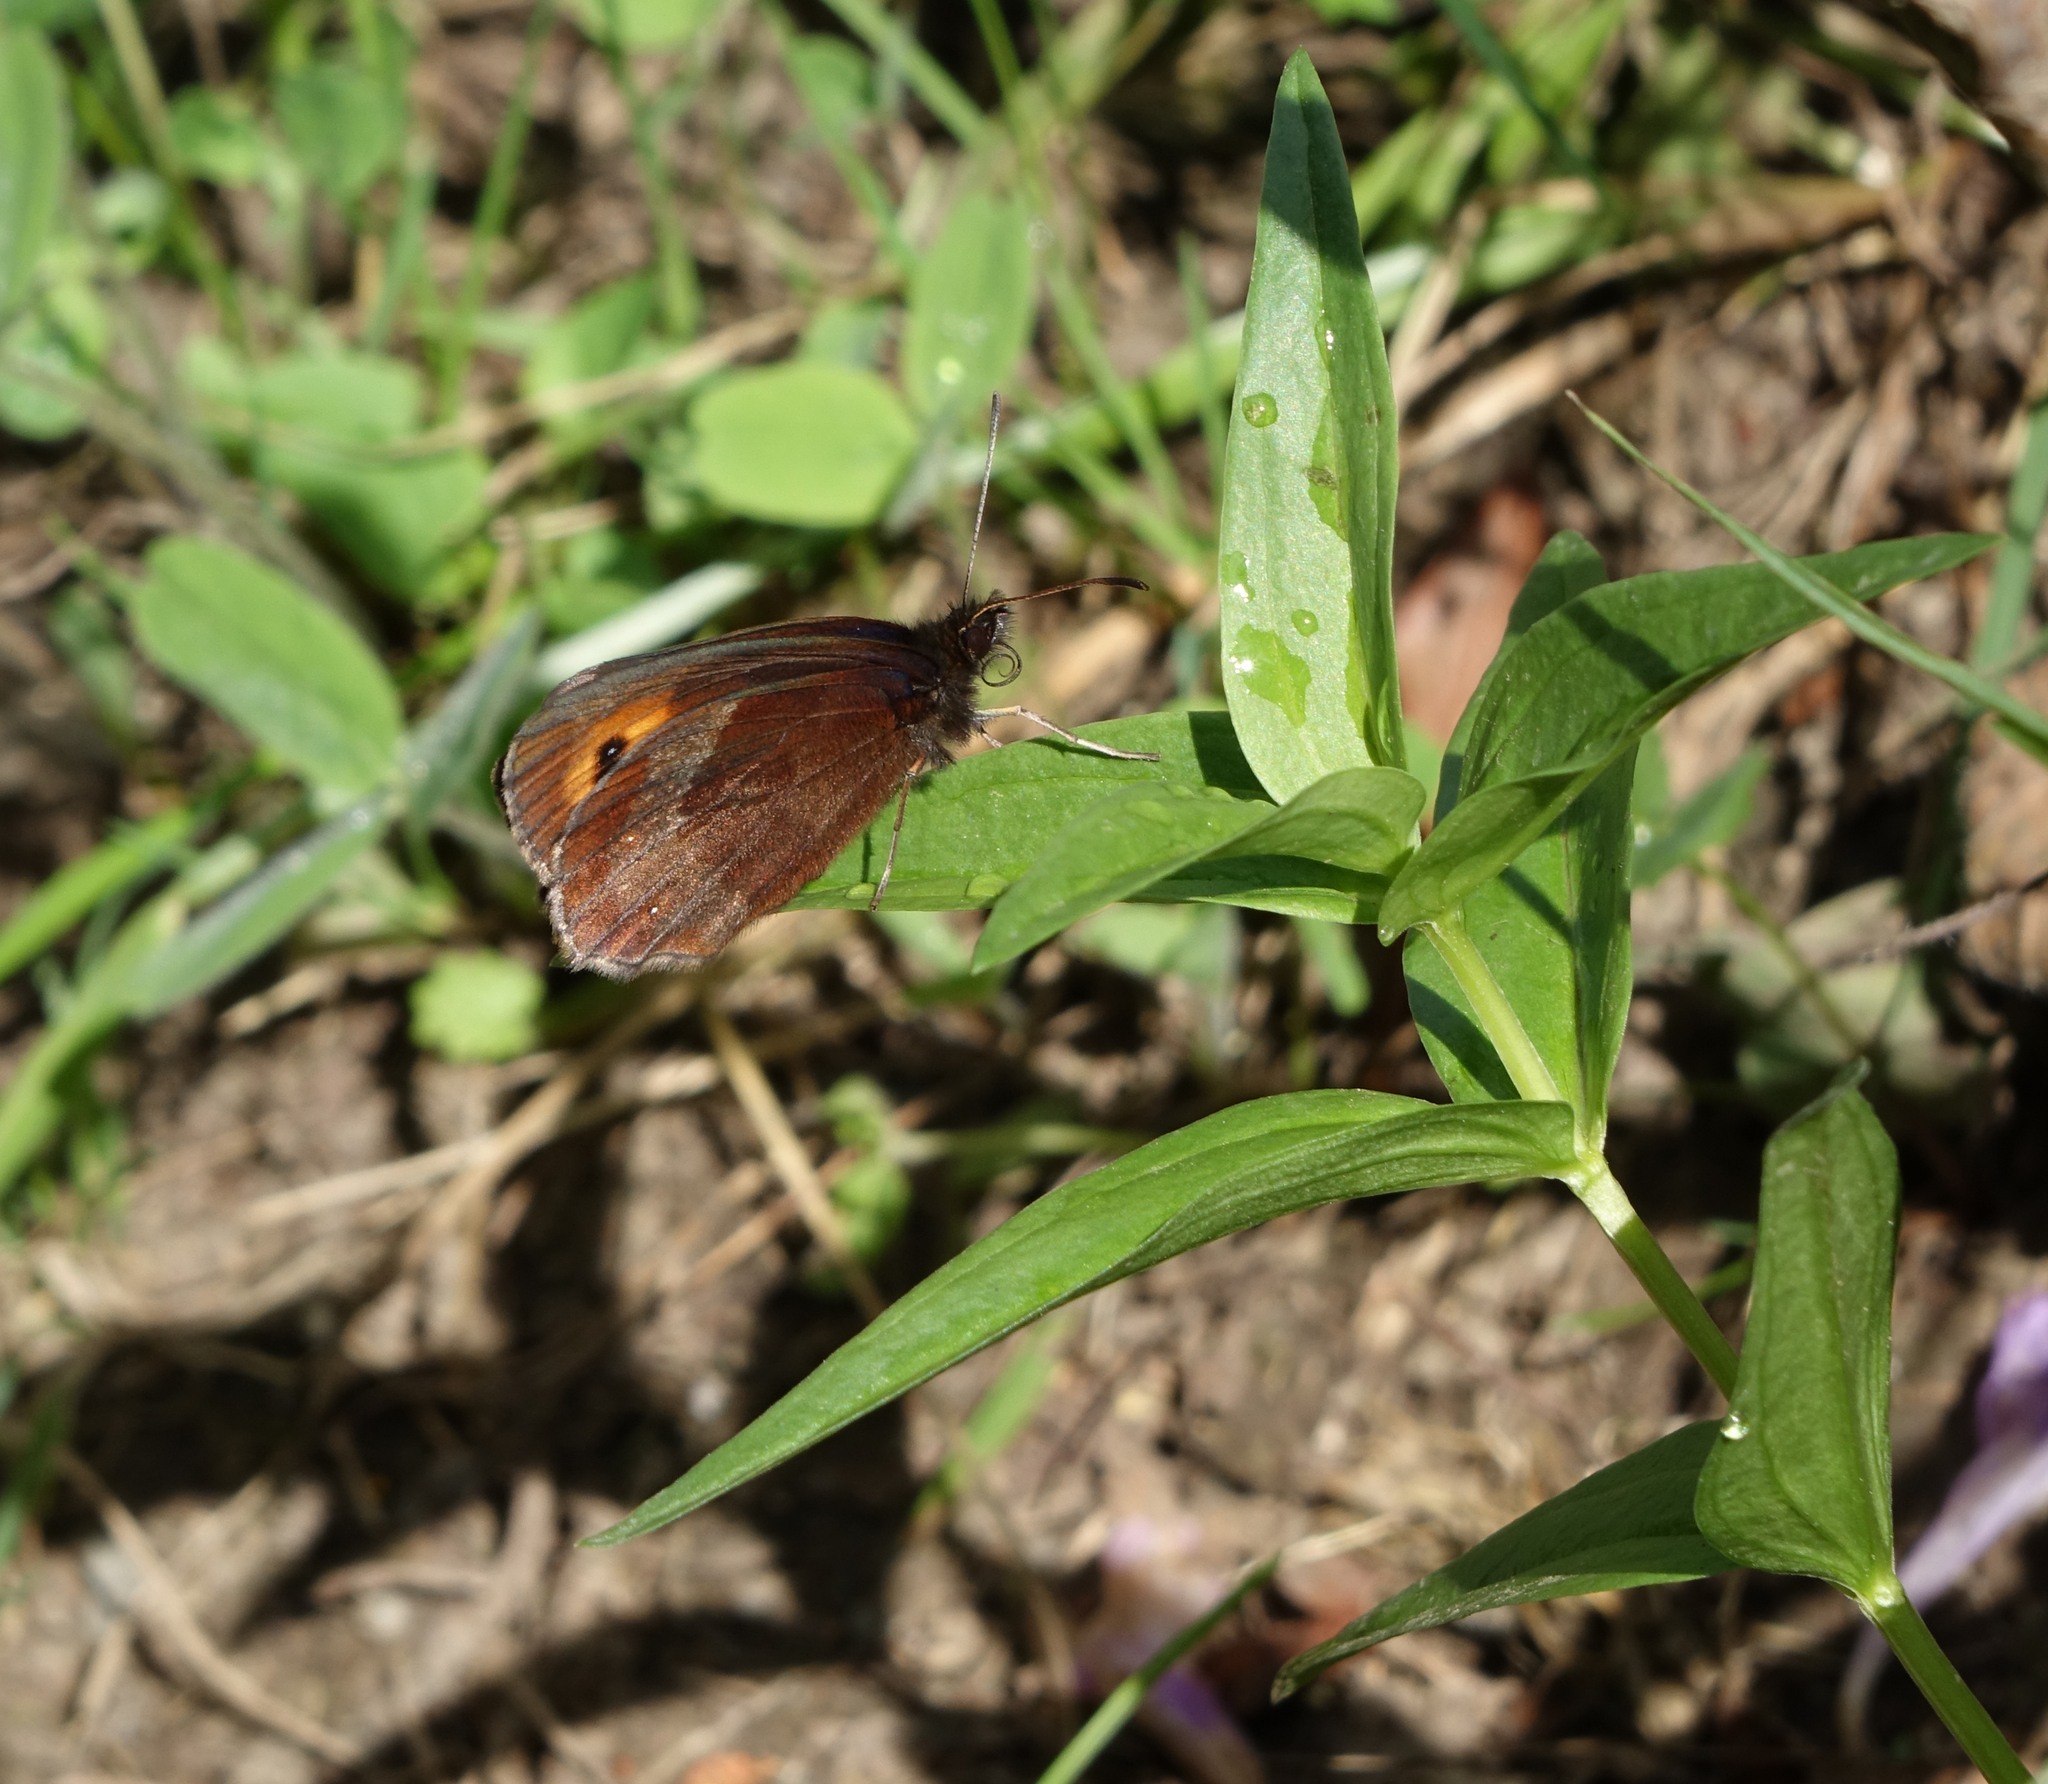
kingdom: Animalia
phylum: Arthropoda
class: Insecta
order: Lepidoptera
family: Nymphalidae
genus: Erebia
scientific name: Erebia aethiops
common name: Scotch argus
